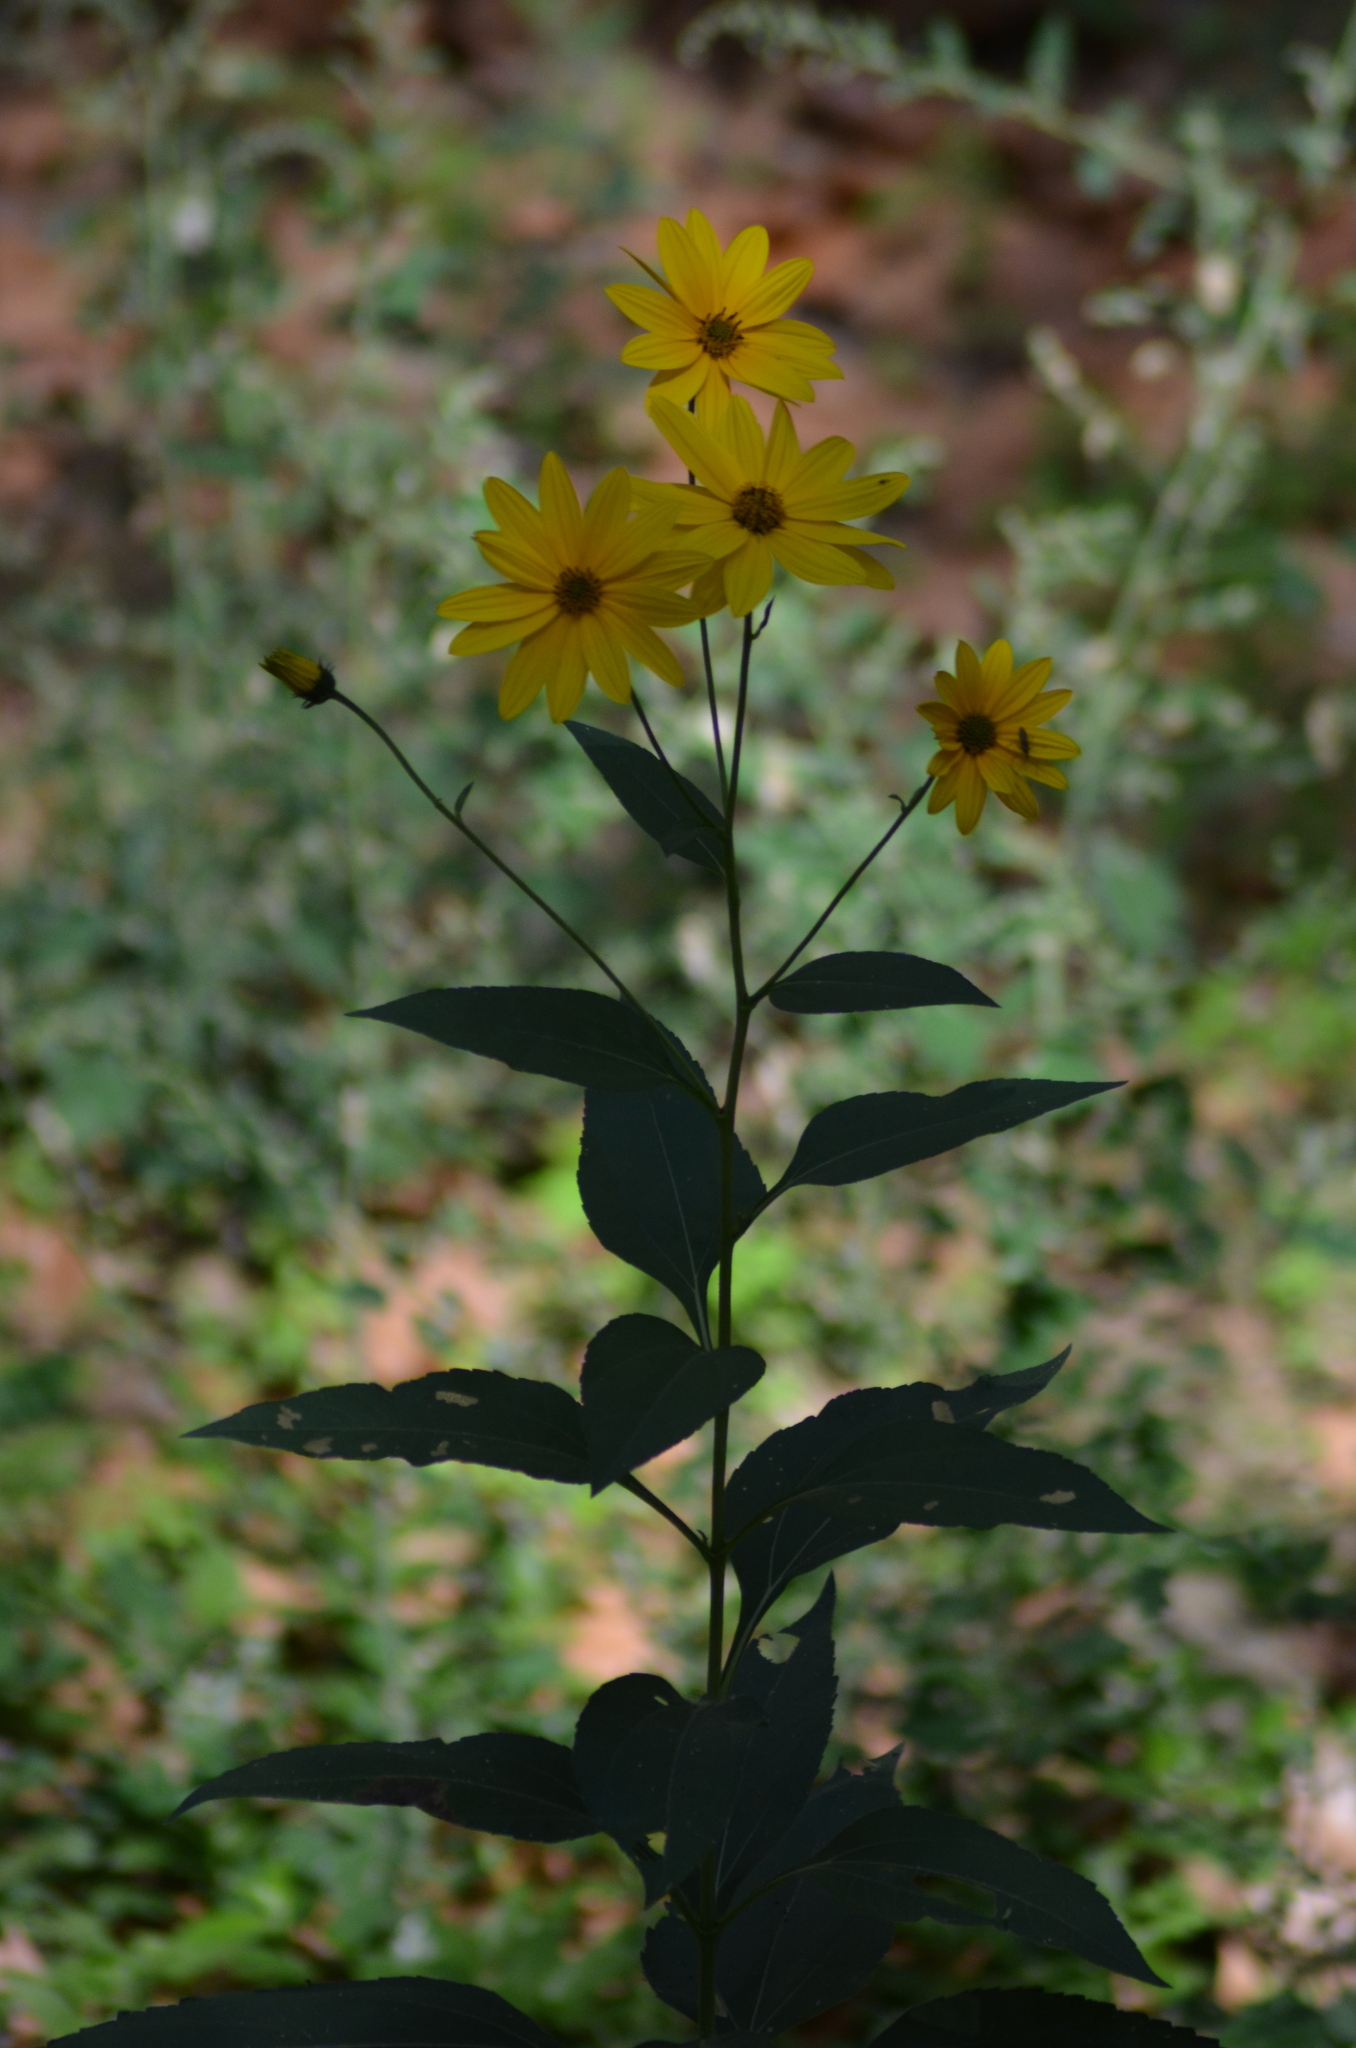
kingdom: Plantae
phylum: Tracheophyta
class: Magnoliopsida
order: Asterales
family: Asteraceae
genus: Helianthus
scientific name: Helianthus tuberosus
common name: Jerusalem artichoke
